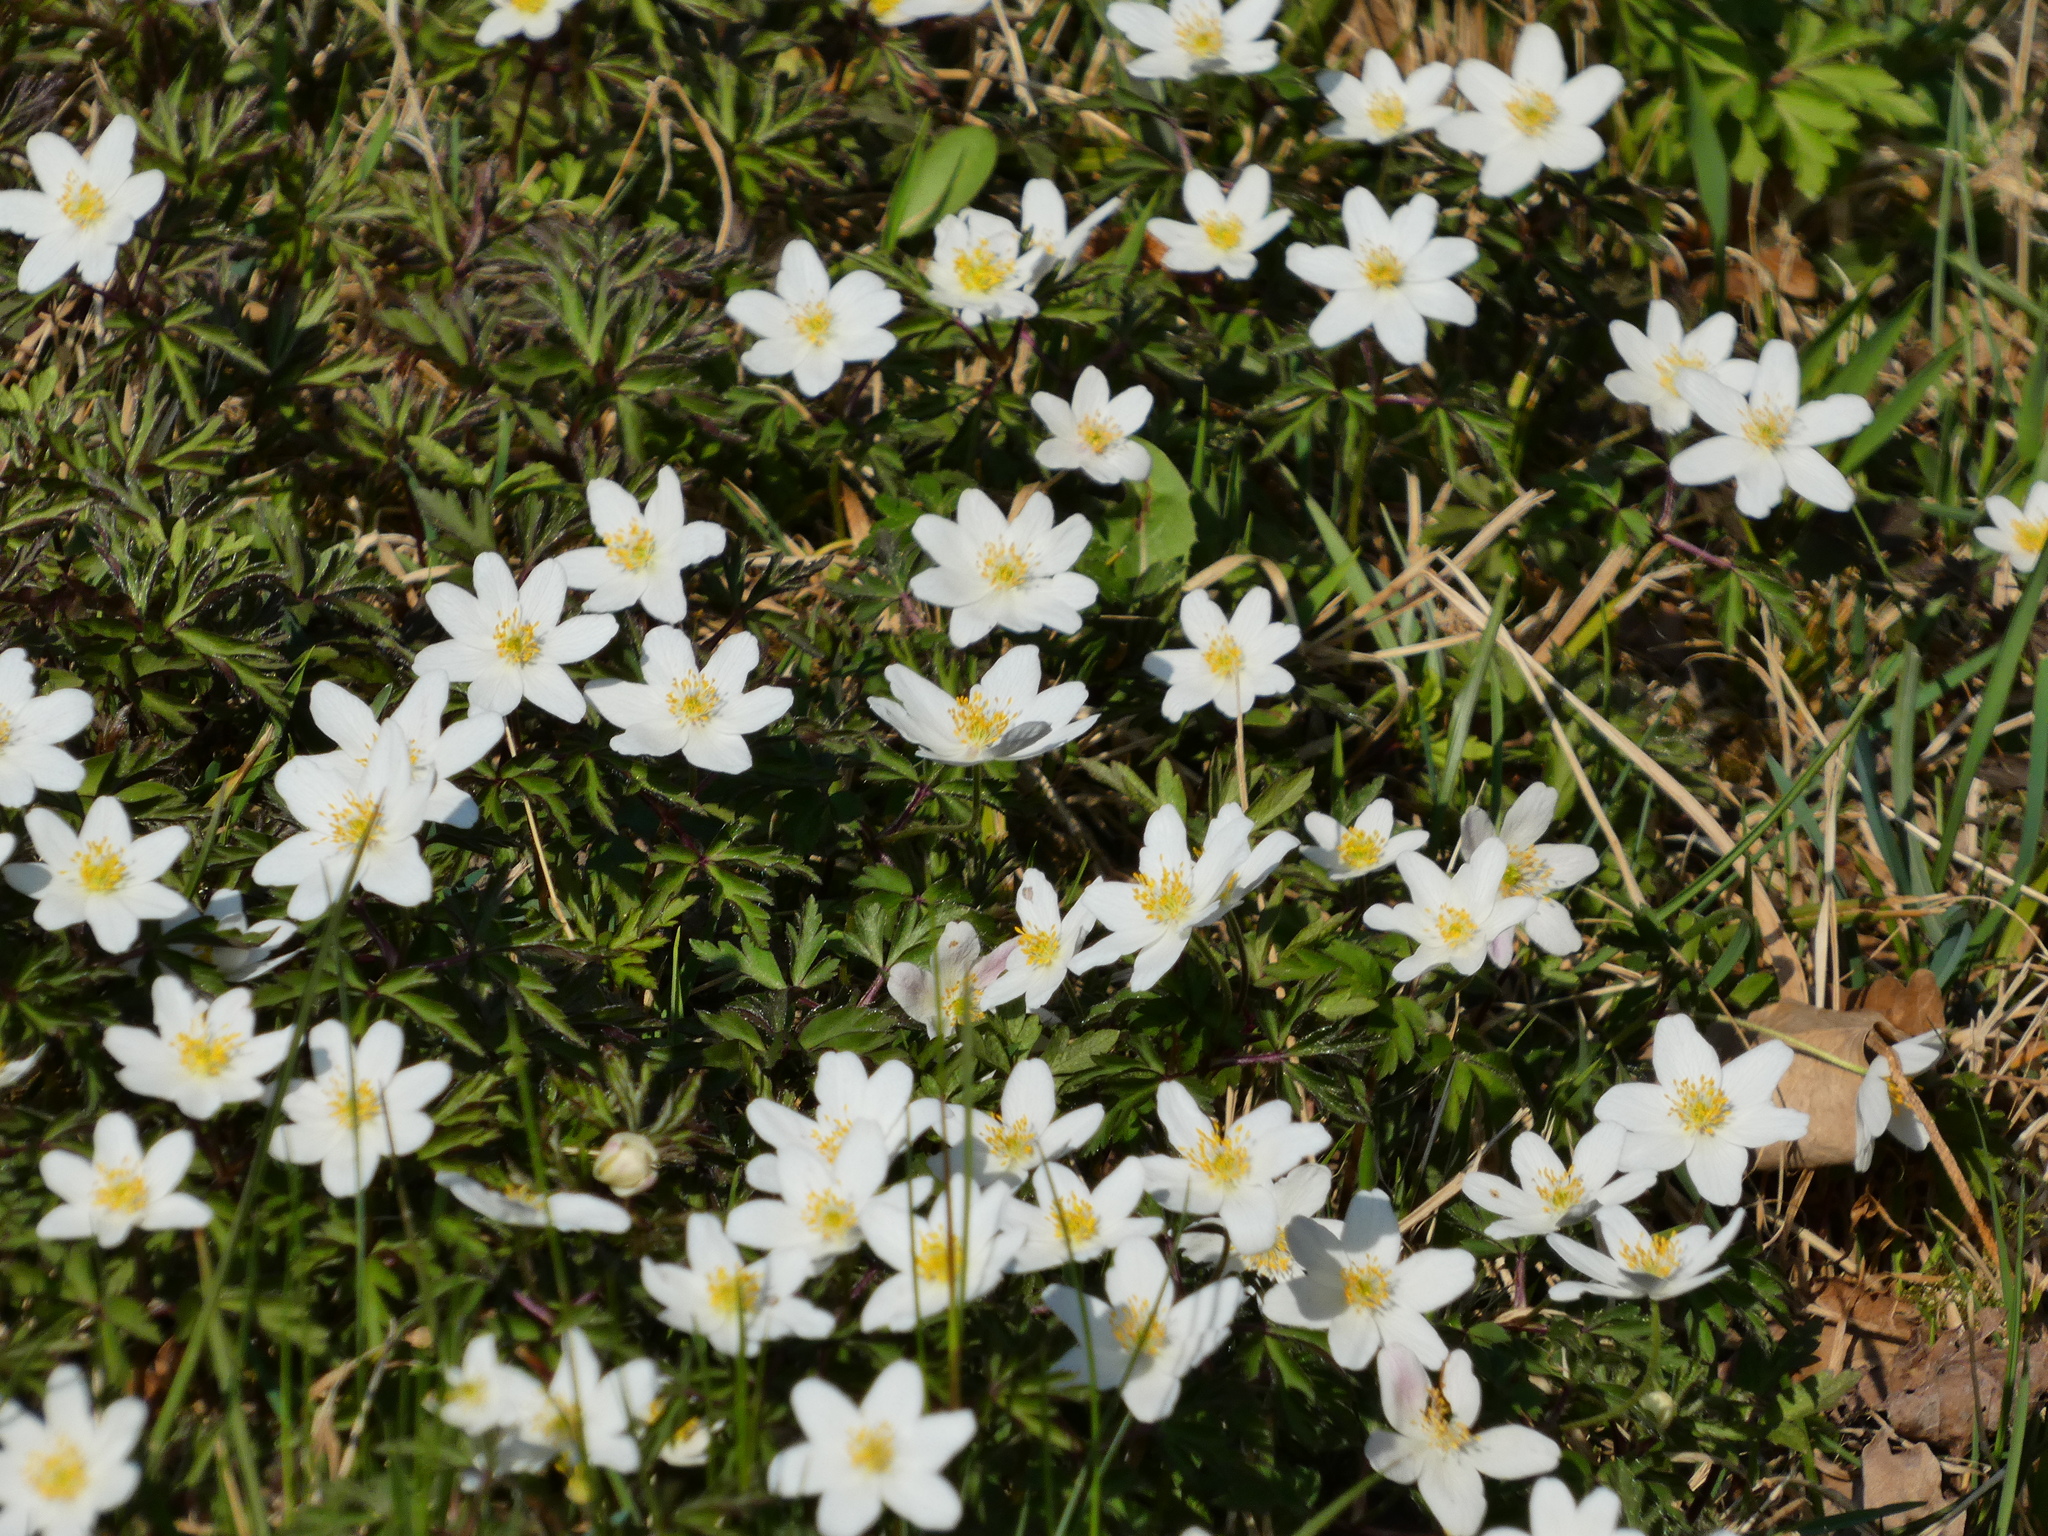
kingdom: Plantae
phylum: Tracheophyta
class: Magnoliopsida
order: Ranunculales
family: Ranunculaceae
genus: Anemone
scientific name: Anemone nemorosa
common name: Wood anemone
